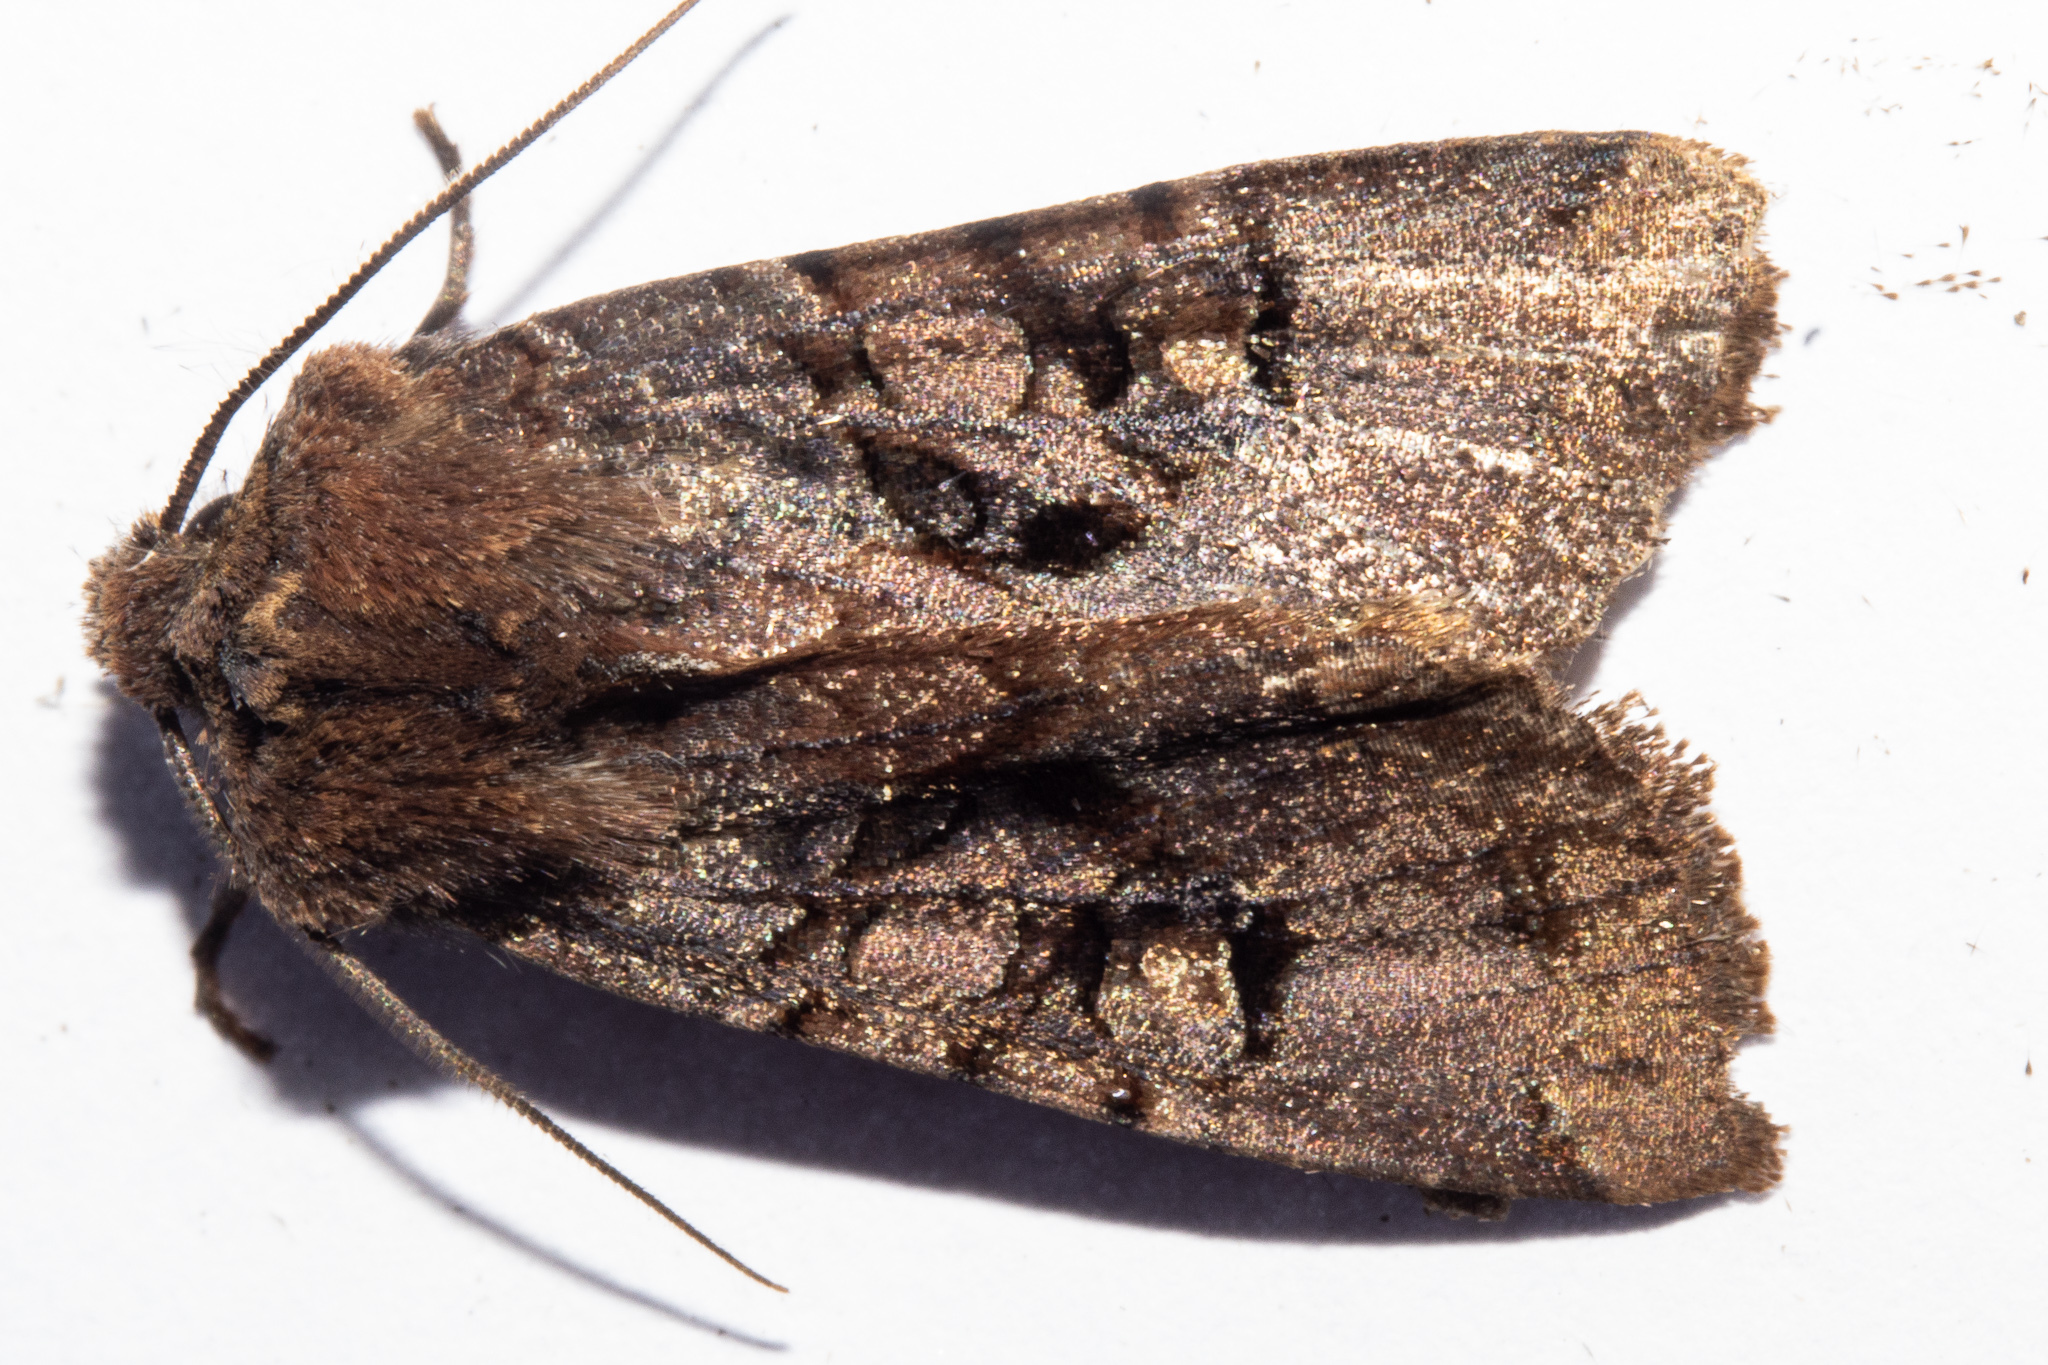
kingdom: Animalia
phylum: Arthropoda
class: Insecta
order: Lepidoptera
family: Noctuidae
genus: Meterana
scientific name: Meterana tartaraea
